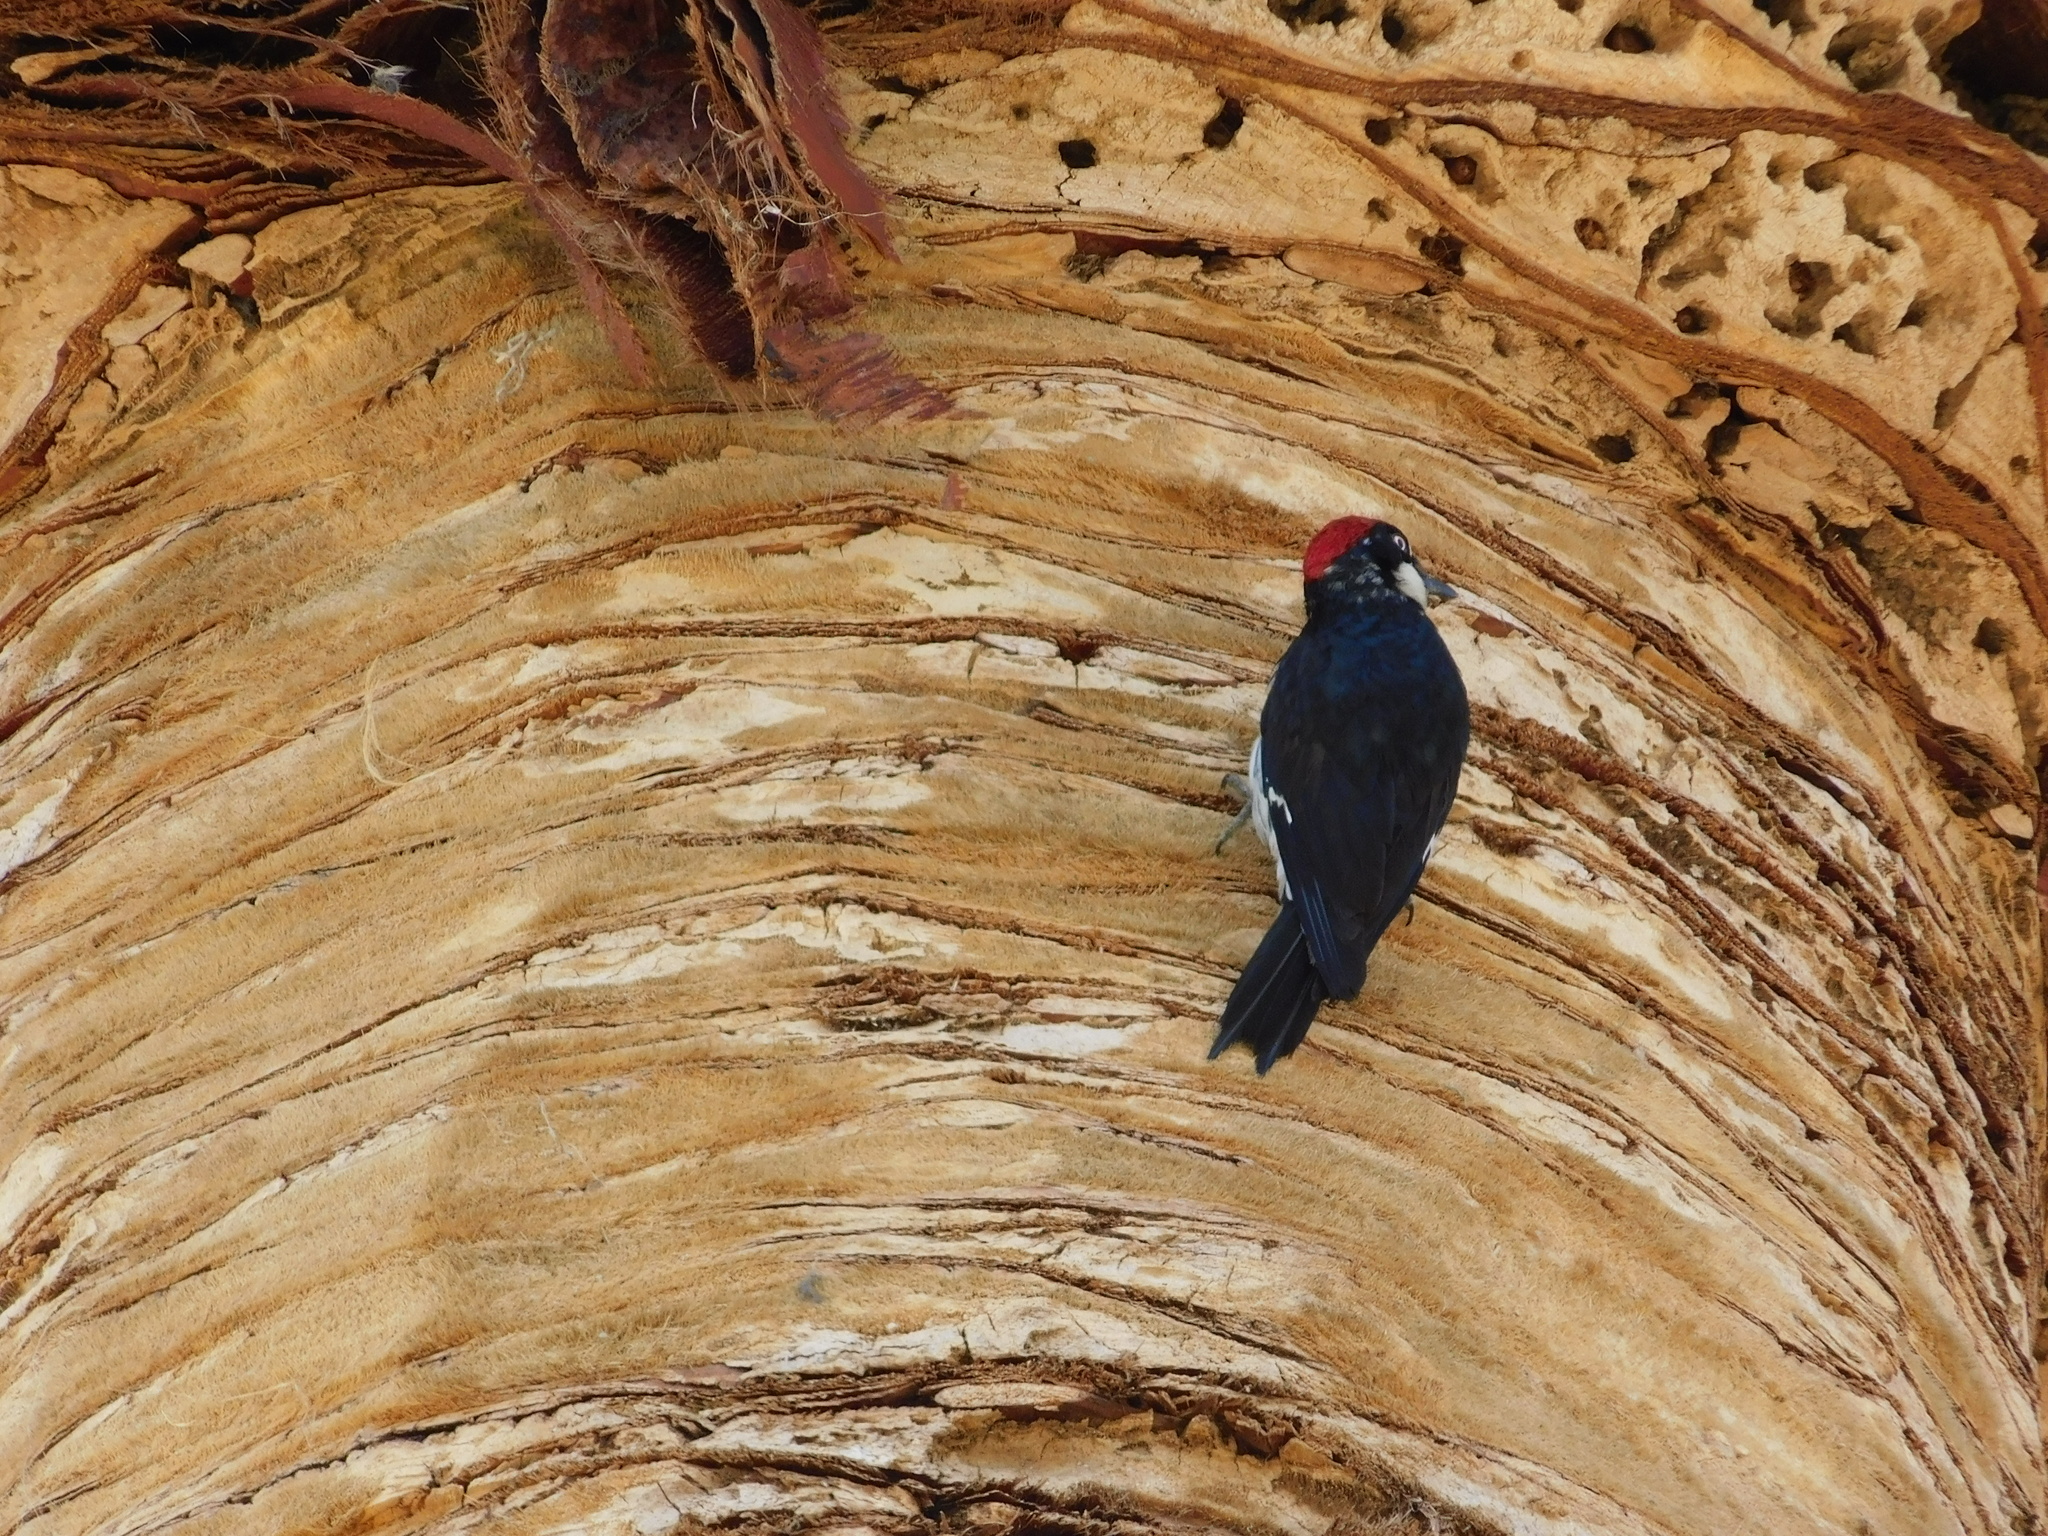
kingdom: Animalia
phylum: Chordata
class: Aves
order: Piciformes
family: Picidae
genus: Melanerpes
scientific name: Melanerpes formicivorus
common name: Acorn woodpecker
